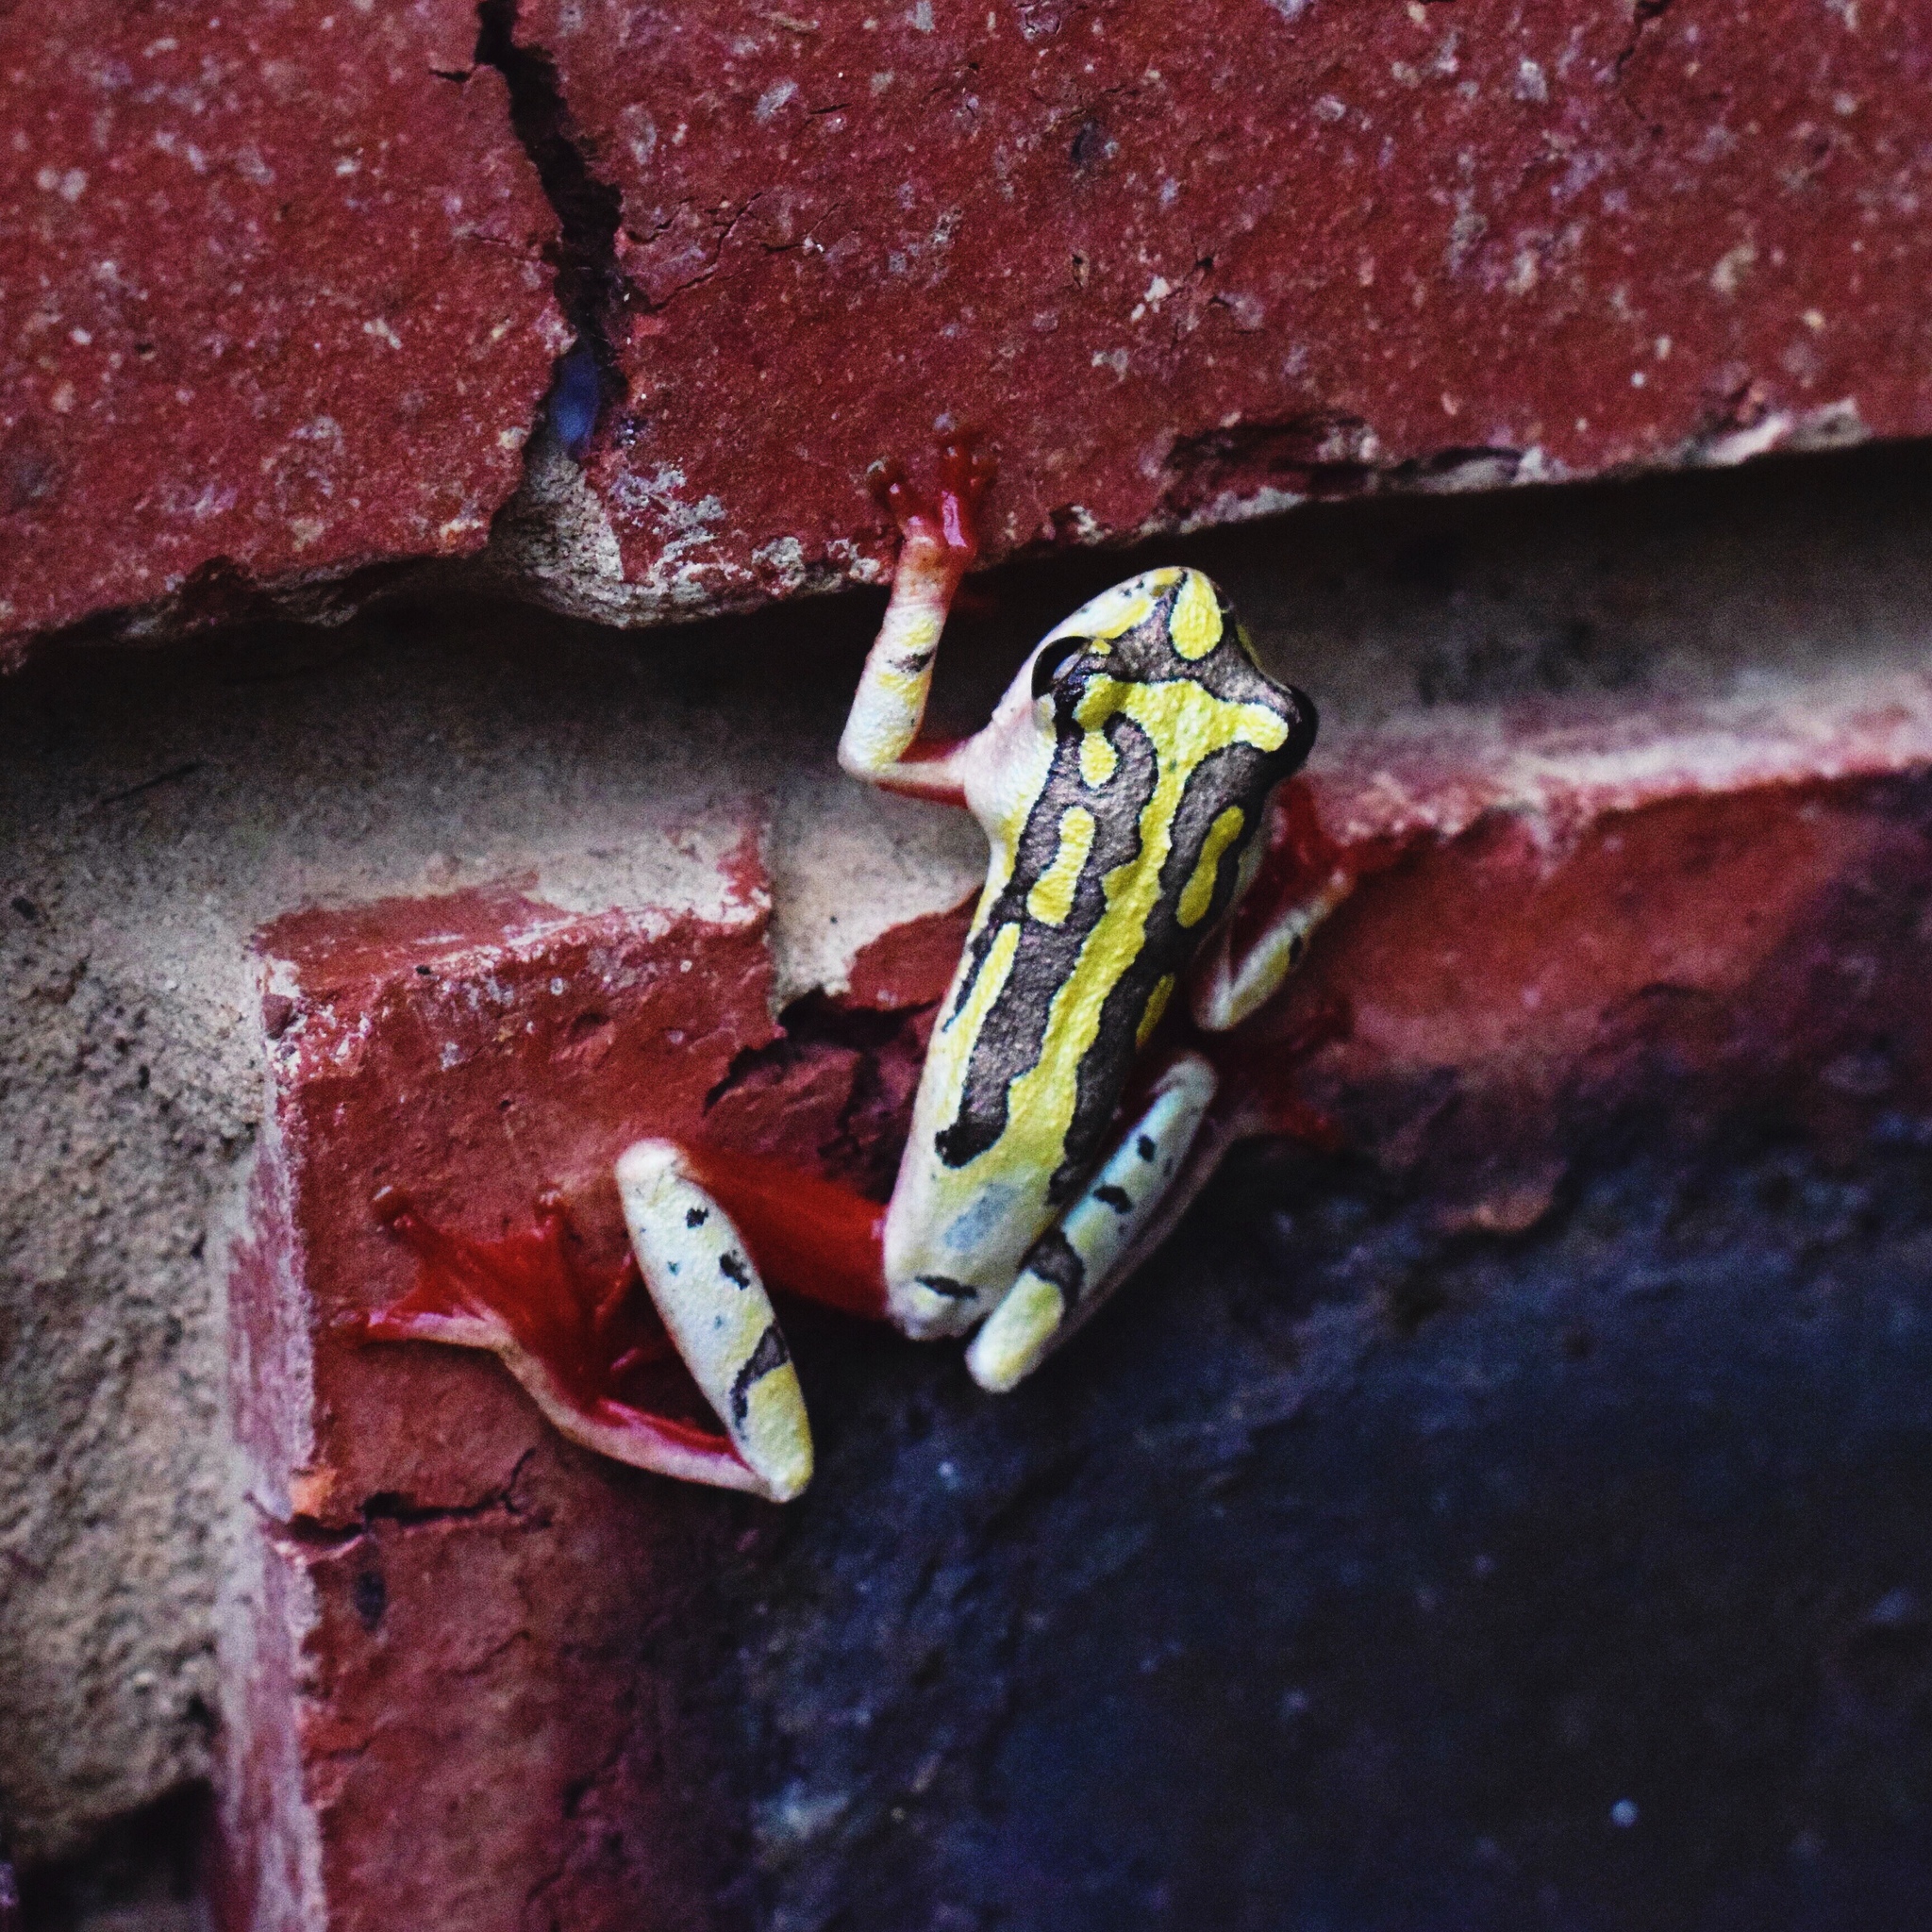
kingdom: Animalia
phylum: Chordata
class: Amphibia
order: Anura
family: Hyperoliidae
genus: Hyperolius
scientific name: Hyperolius marmoratus
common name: Painted reed frog
